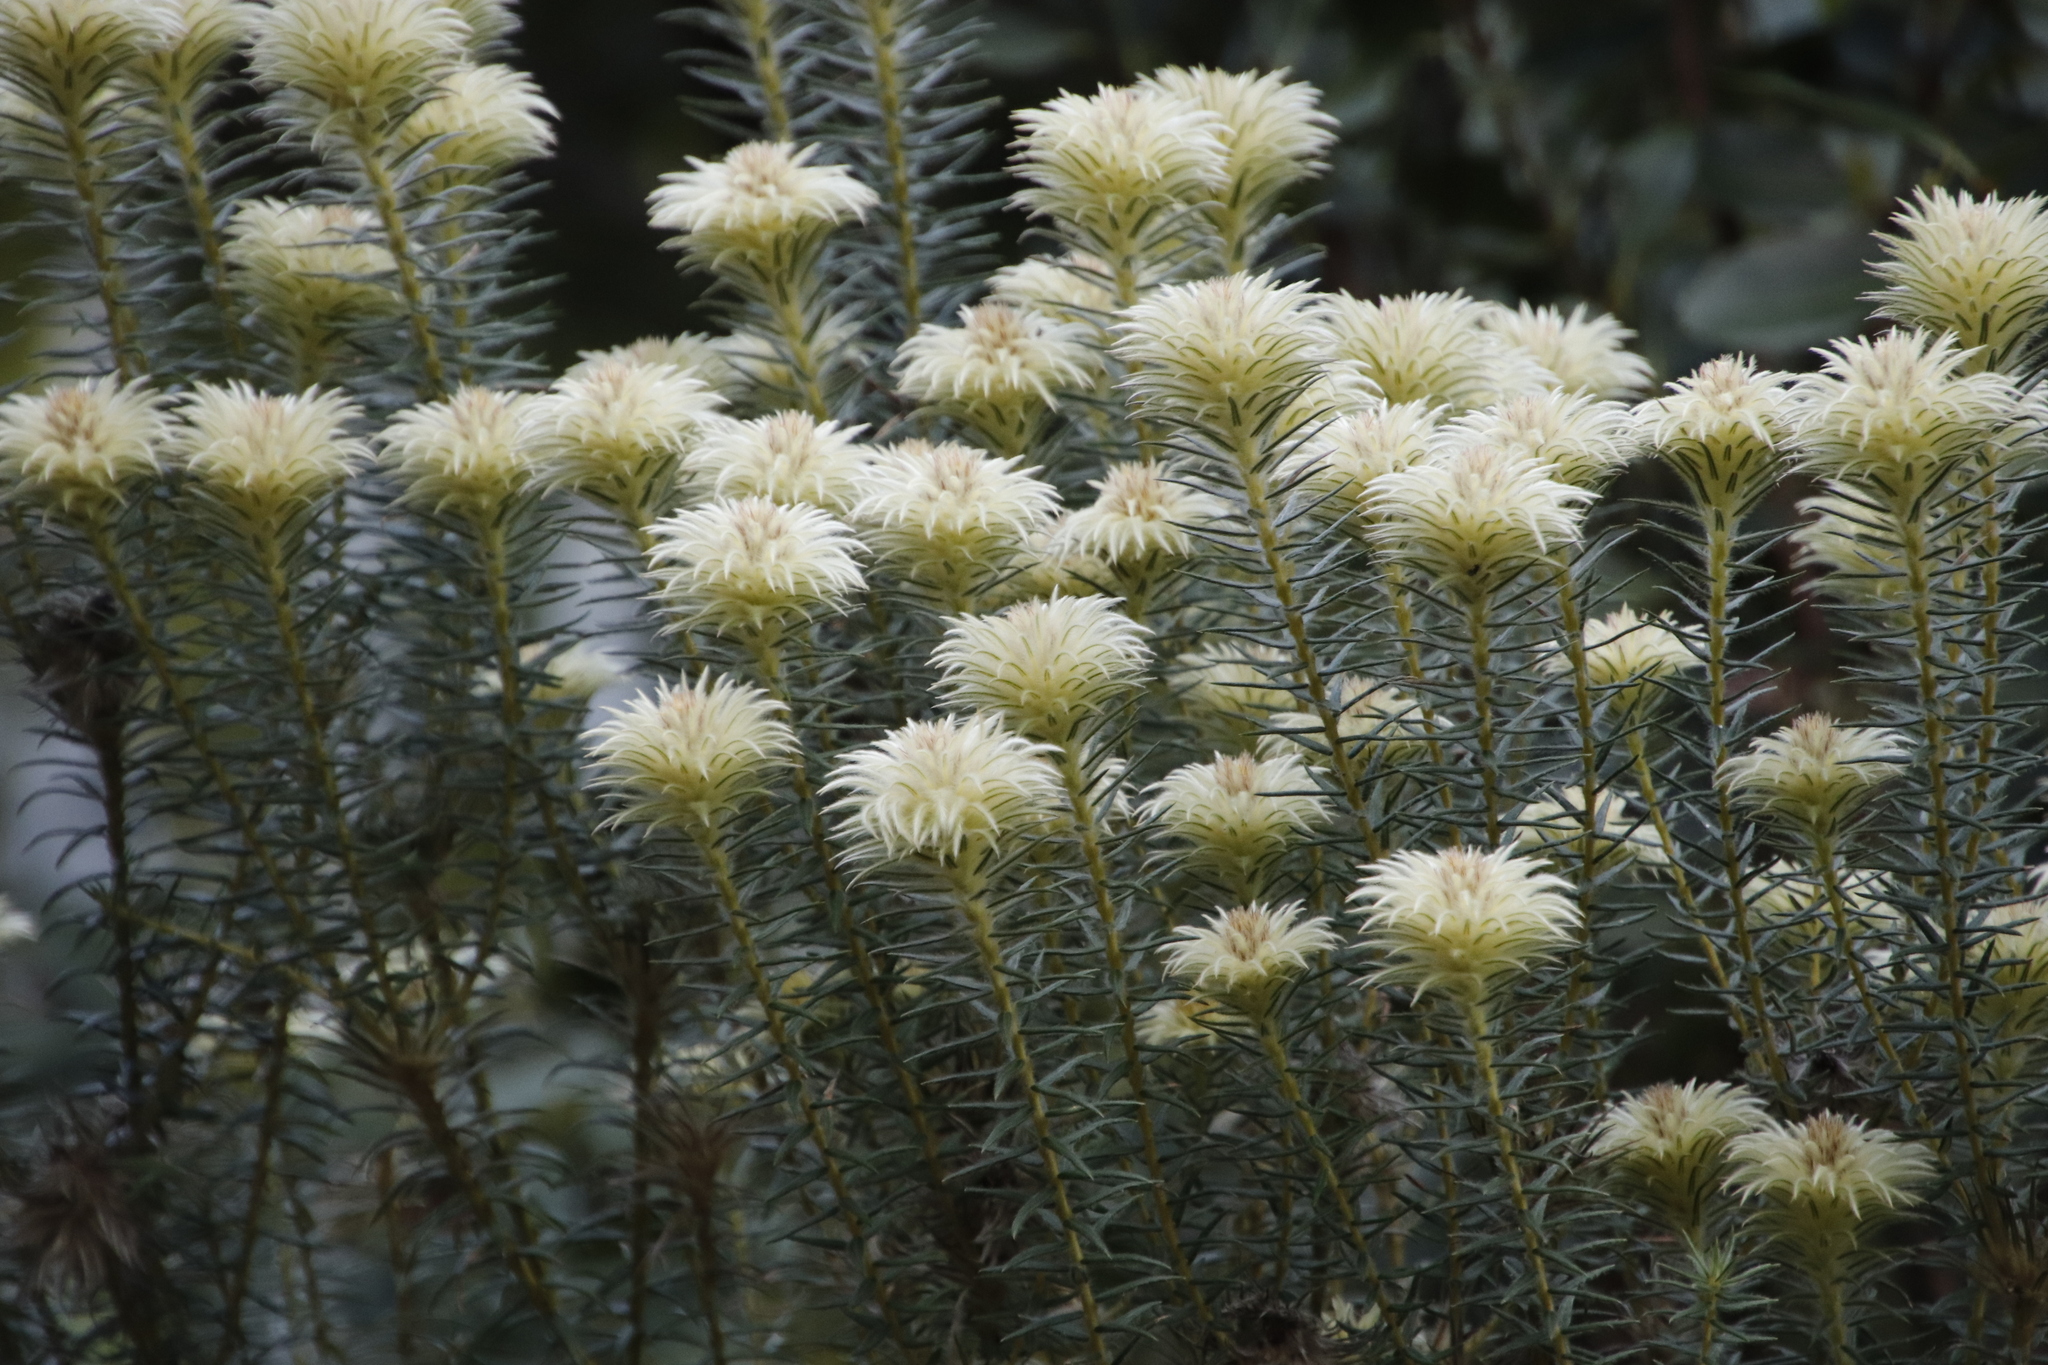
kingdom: Plantae
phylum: Tracheophyta
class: Magnoliopsida
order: Rosales
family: Rhamnaceae
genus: Phylica
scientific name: Phylica pubescens
